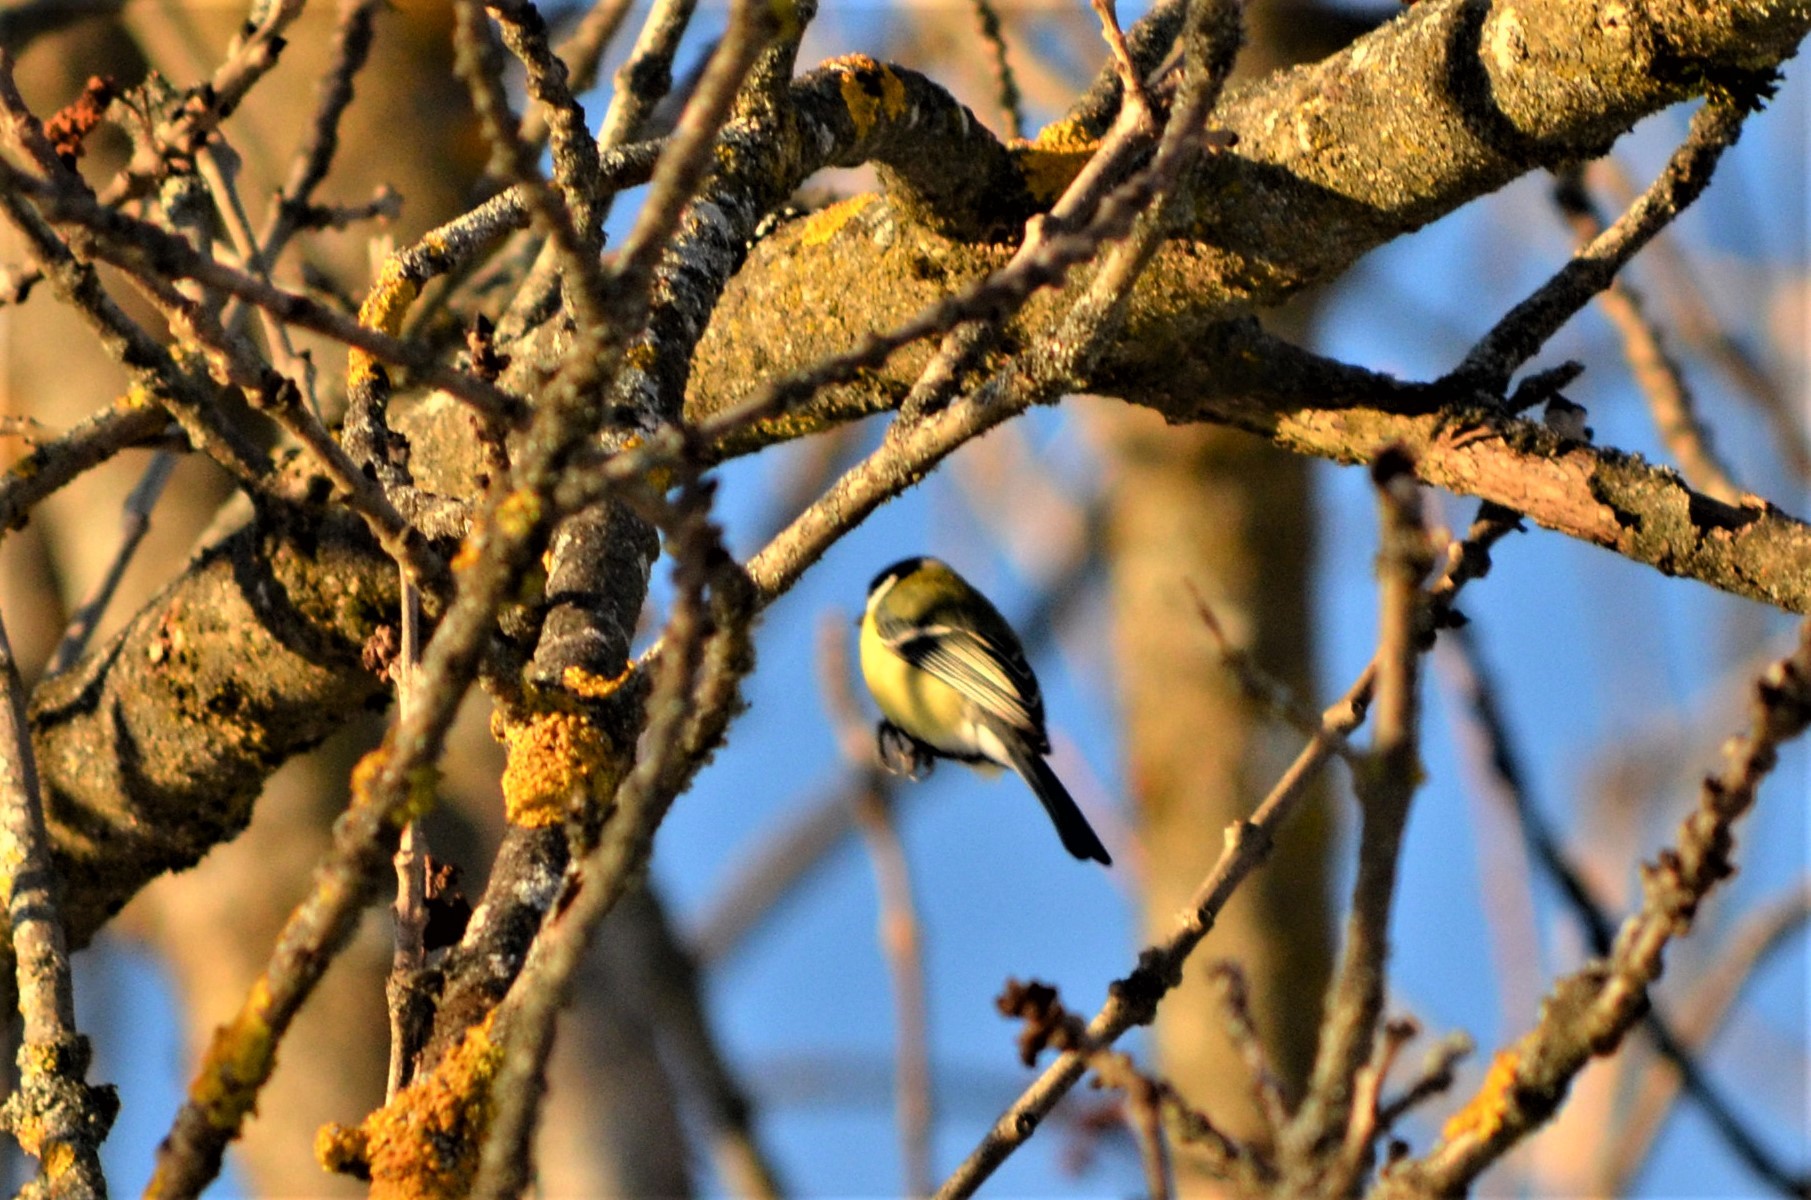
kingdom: Animalia
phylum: Chordata
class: Aves
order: Passeriformes
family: Paridae
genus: Parus
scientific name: Parus major
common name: Great tit
